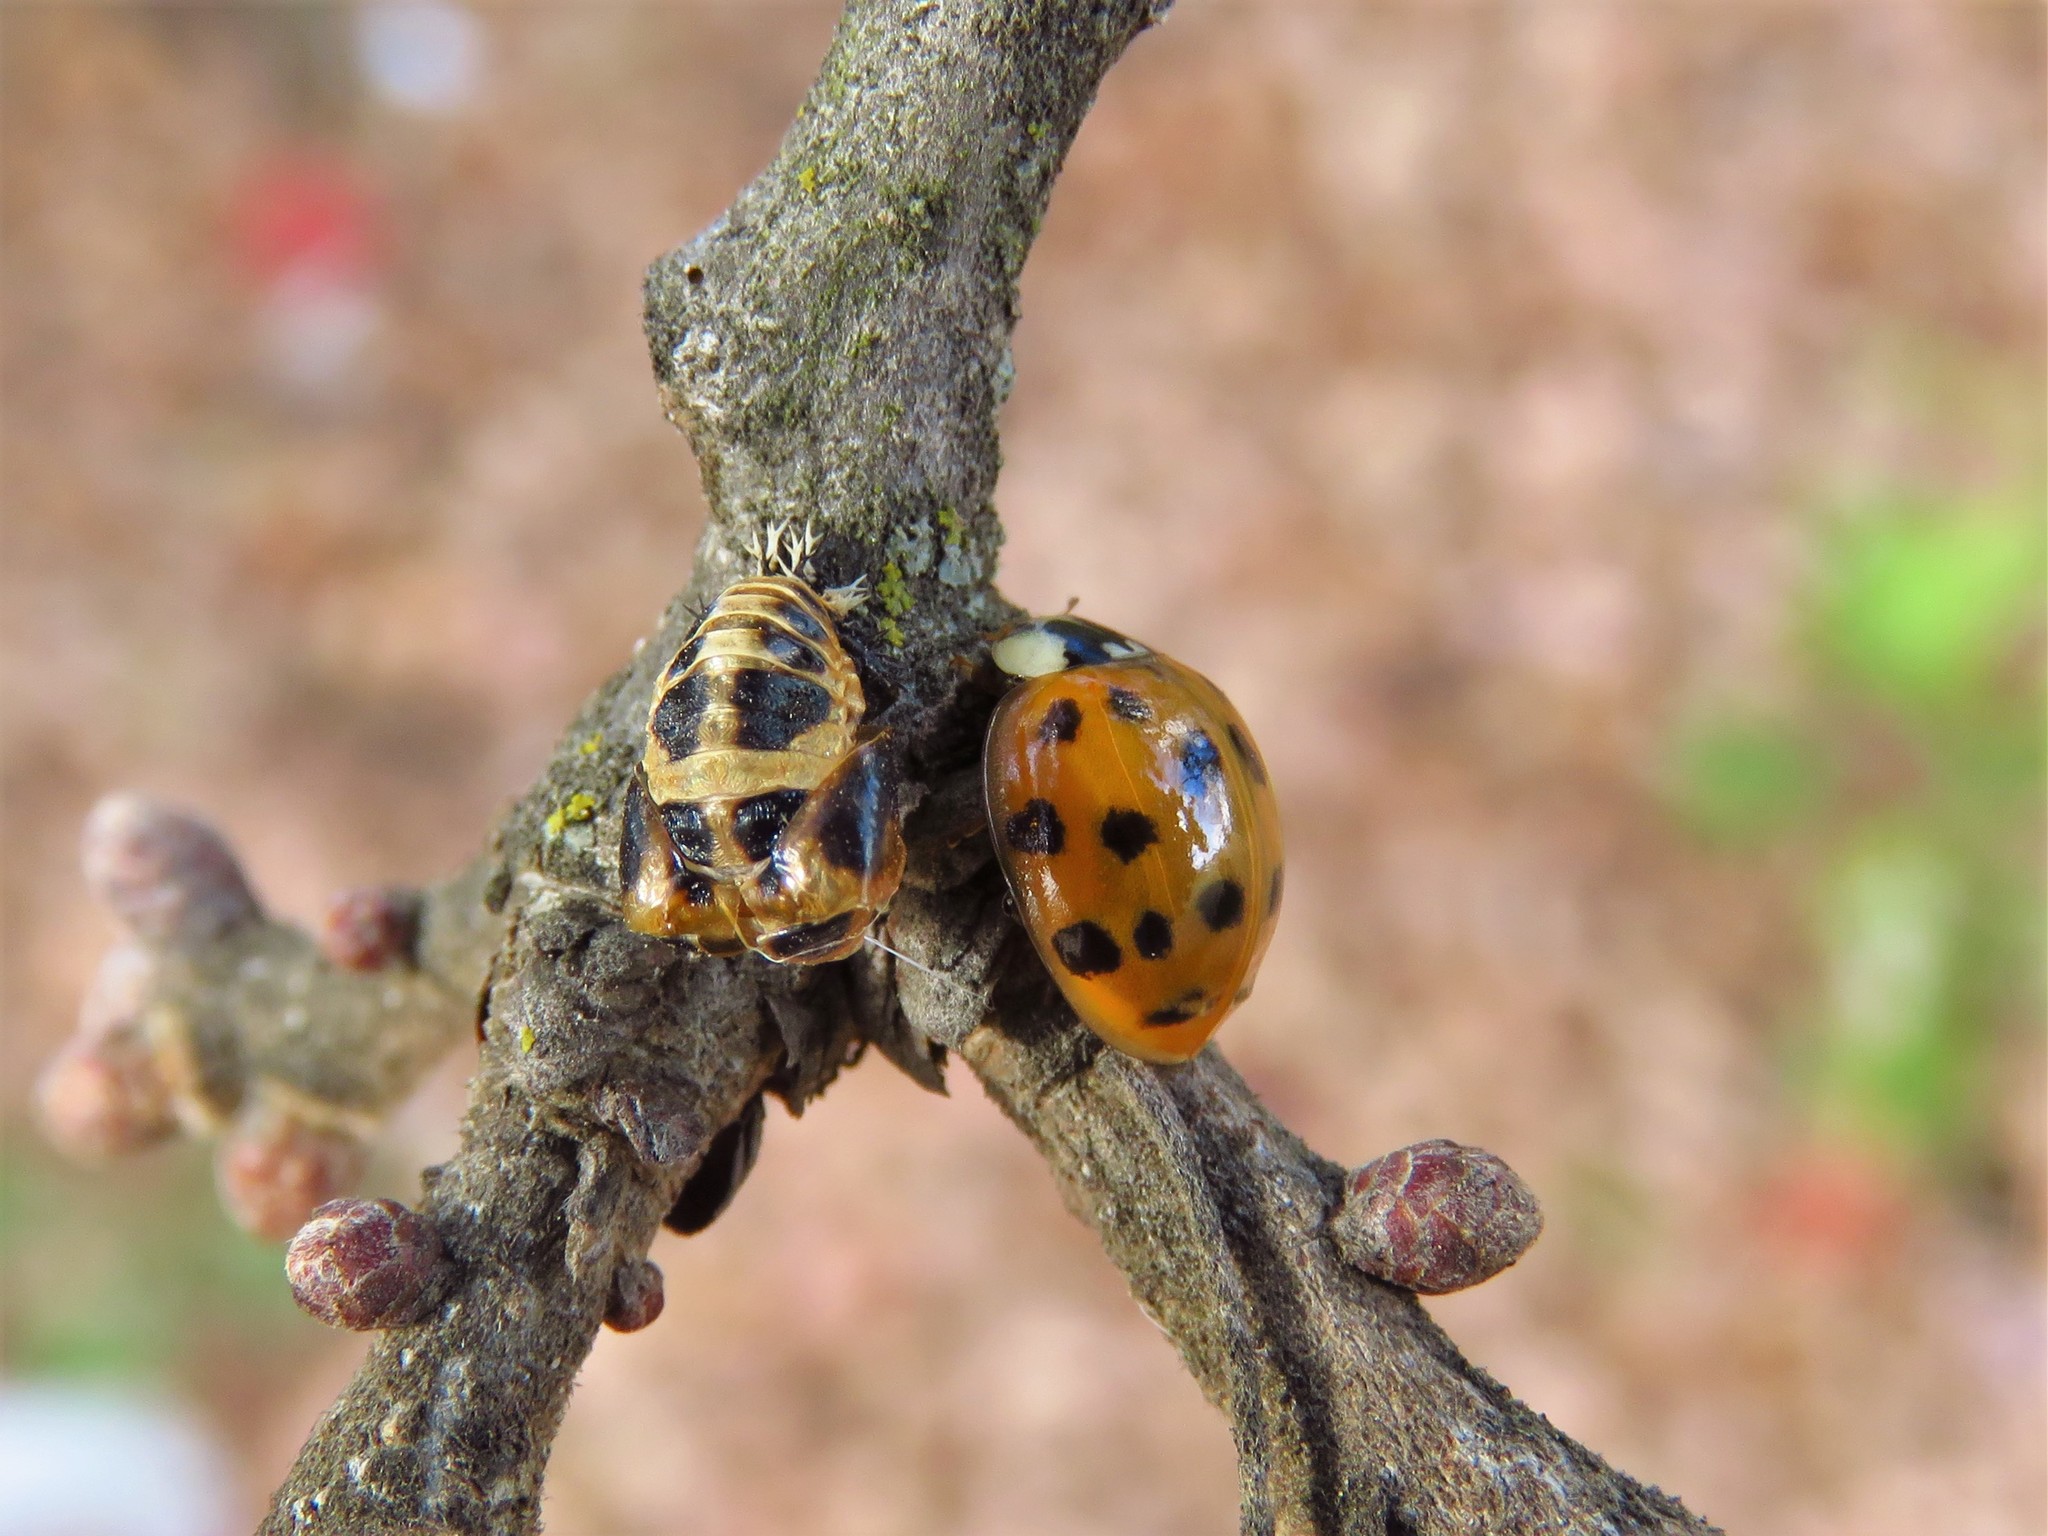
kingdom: Animalia
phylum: Arthropoda
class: Insecta
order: Coleoptera
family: Coccinellidae
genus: Harmonia
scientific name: Harmonia axyridis
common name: Harlequin ladybird
